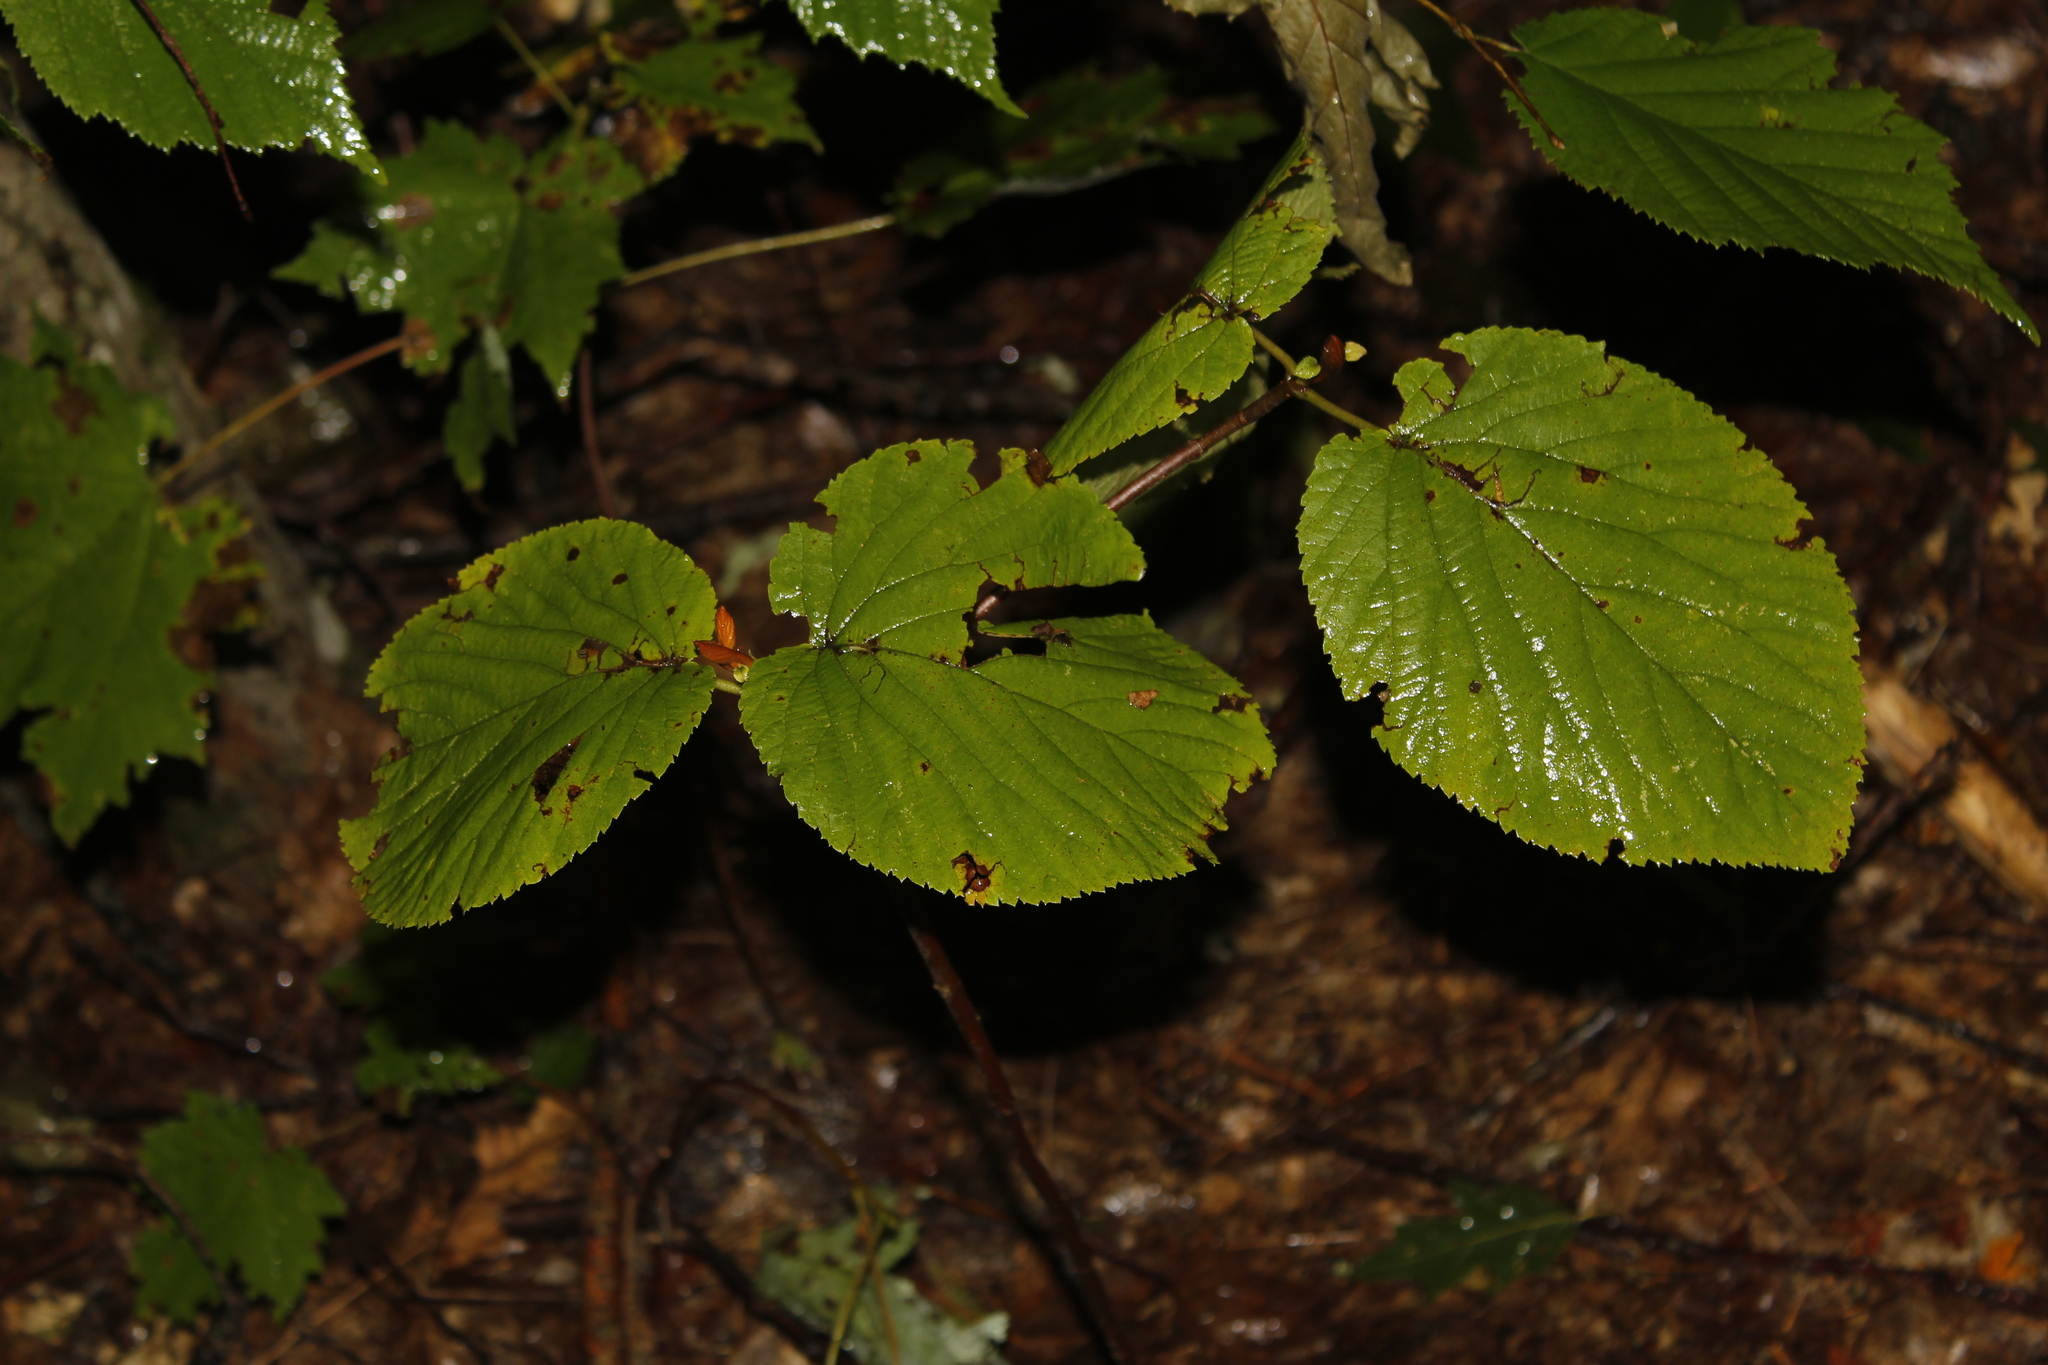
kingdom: Plantae
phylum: Tracheophyta
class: Magnoliopsida
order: Dipsacales
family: Viburnaceae
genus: Viburnum
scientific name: Viburnum lantanoides
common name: Hobblebush
